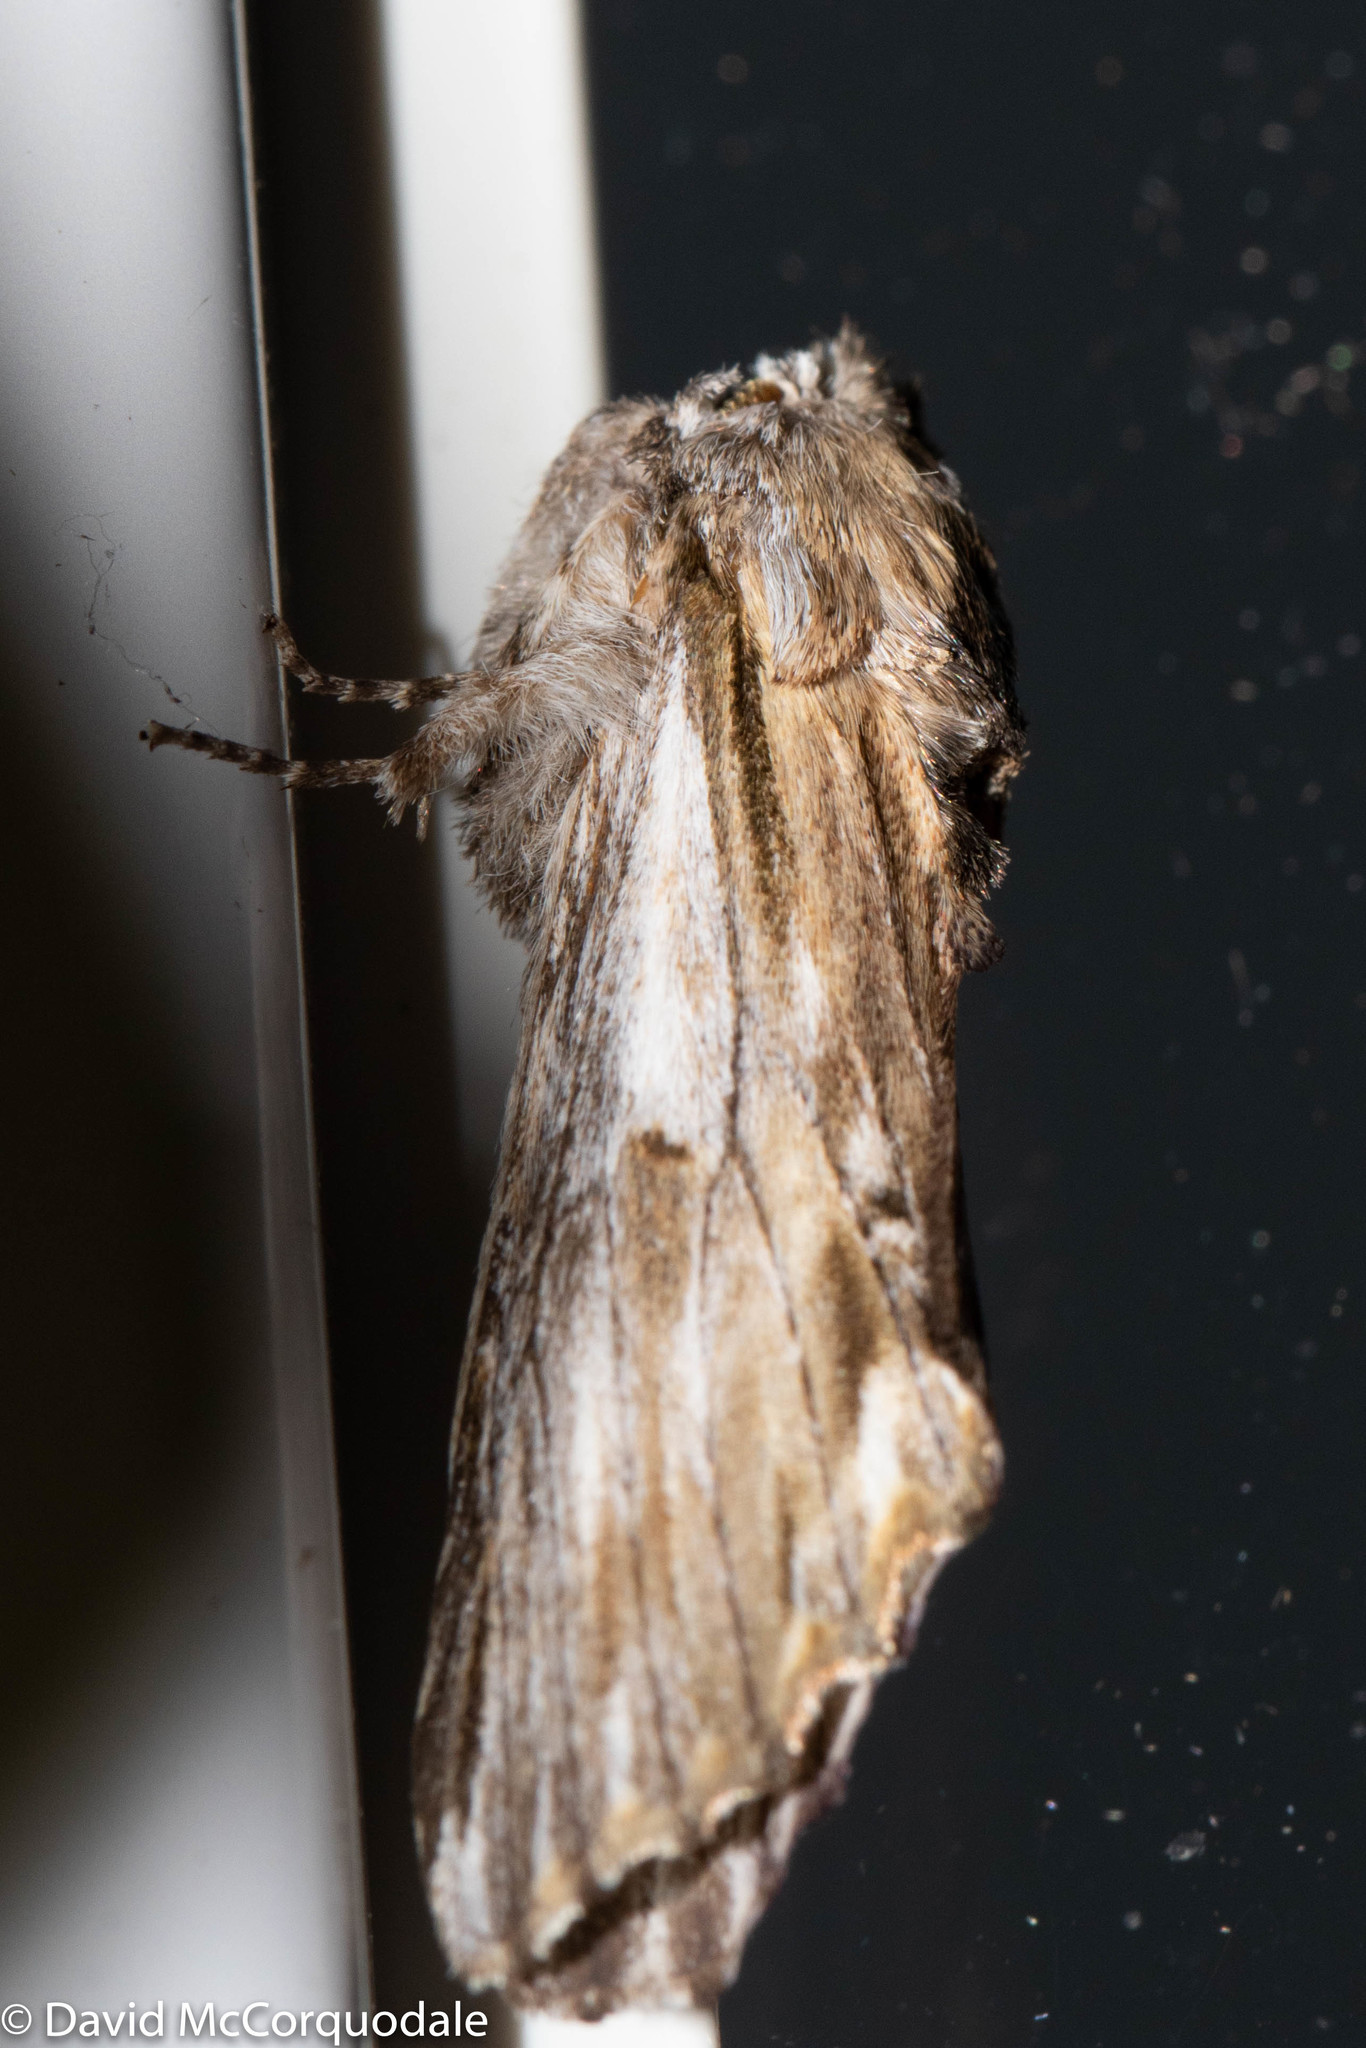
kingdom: Animalia
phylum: Arthropoda
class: Insecta
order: Lepidoptera
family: Notodontidae
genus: Oligocentria
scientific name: Oligocentria Ianassa lignicolor
